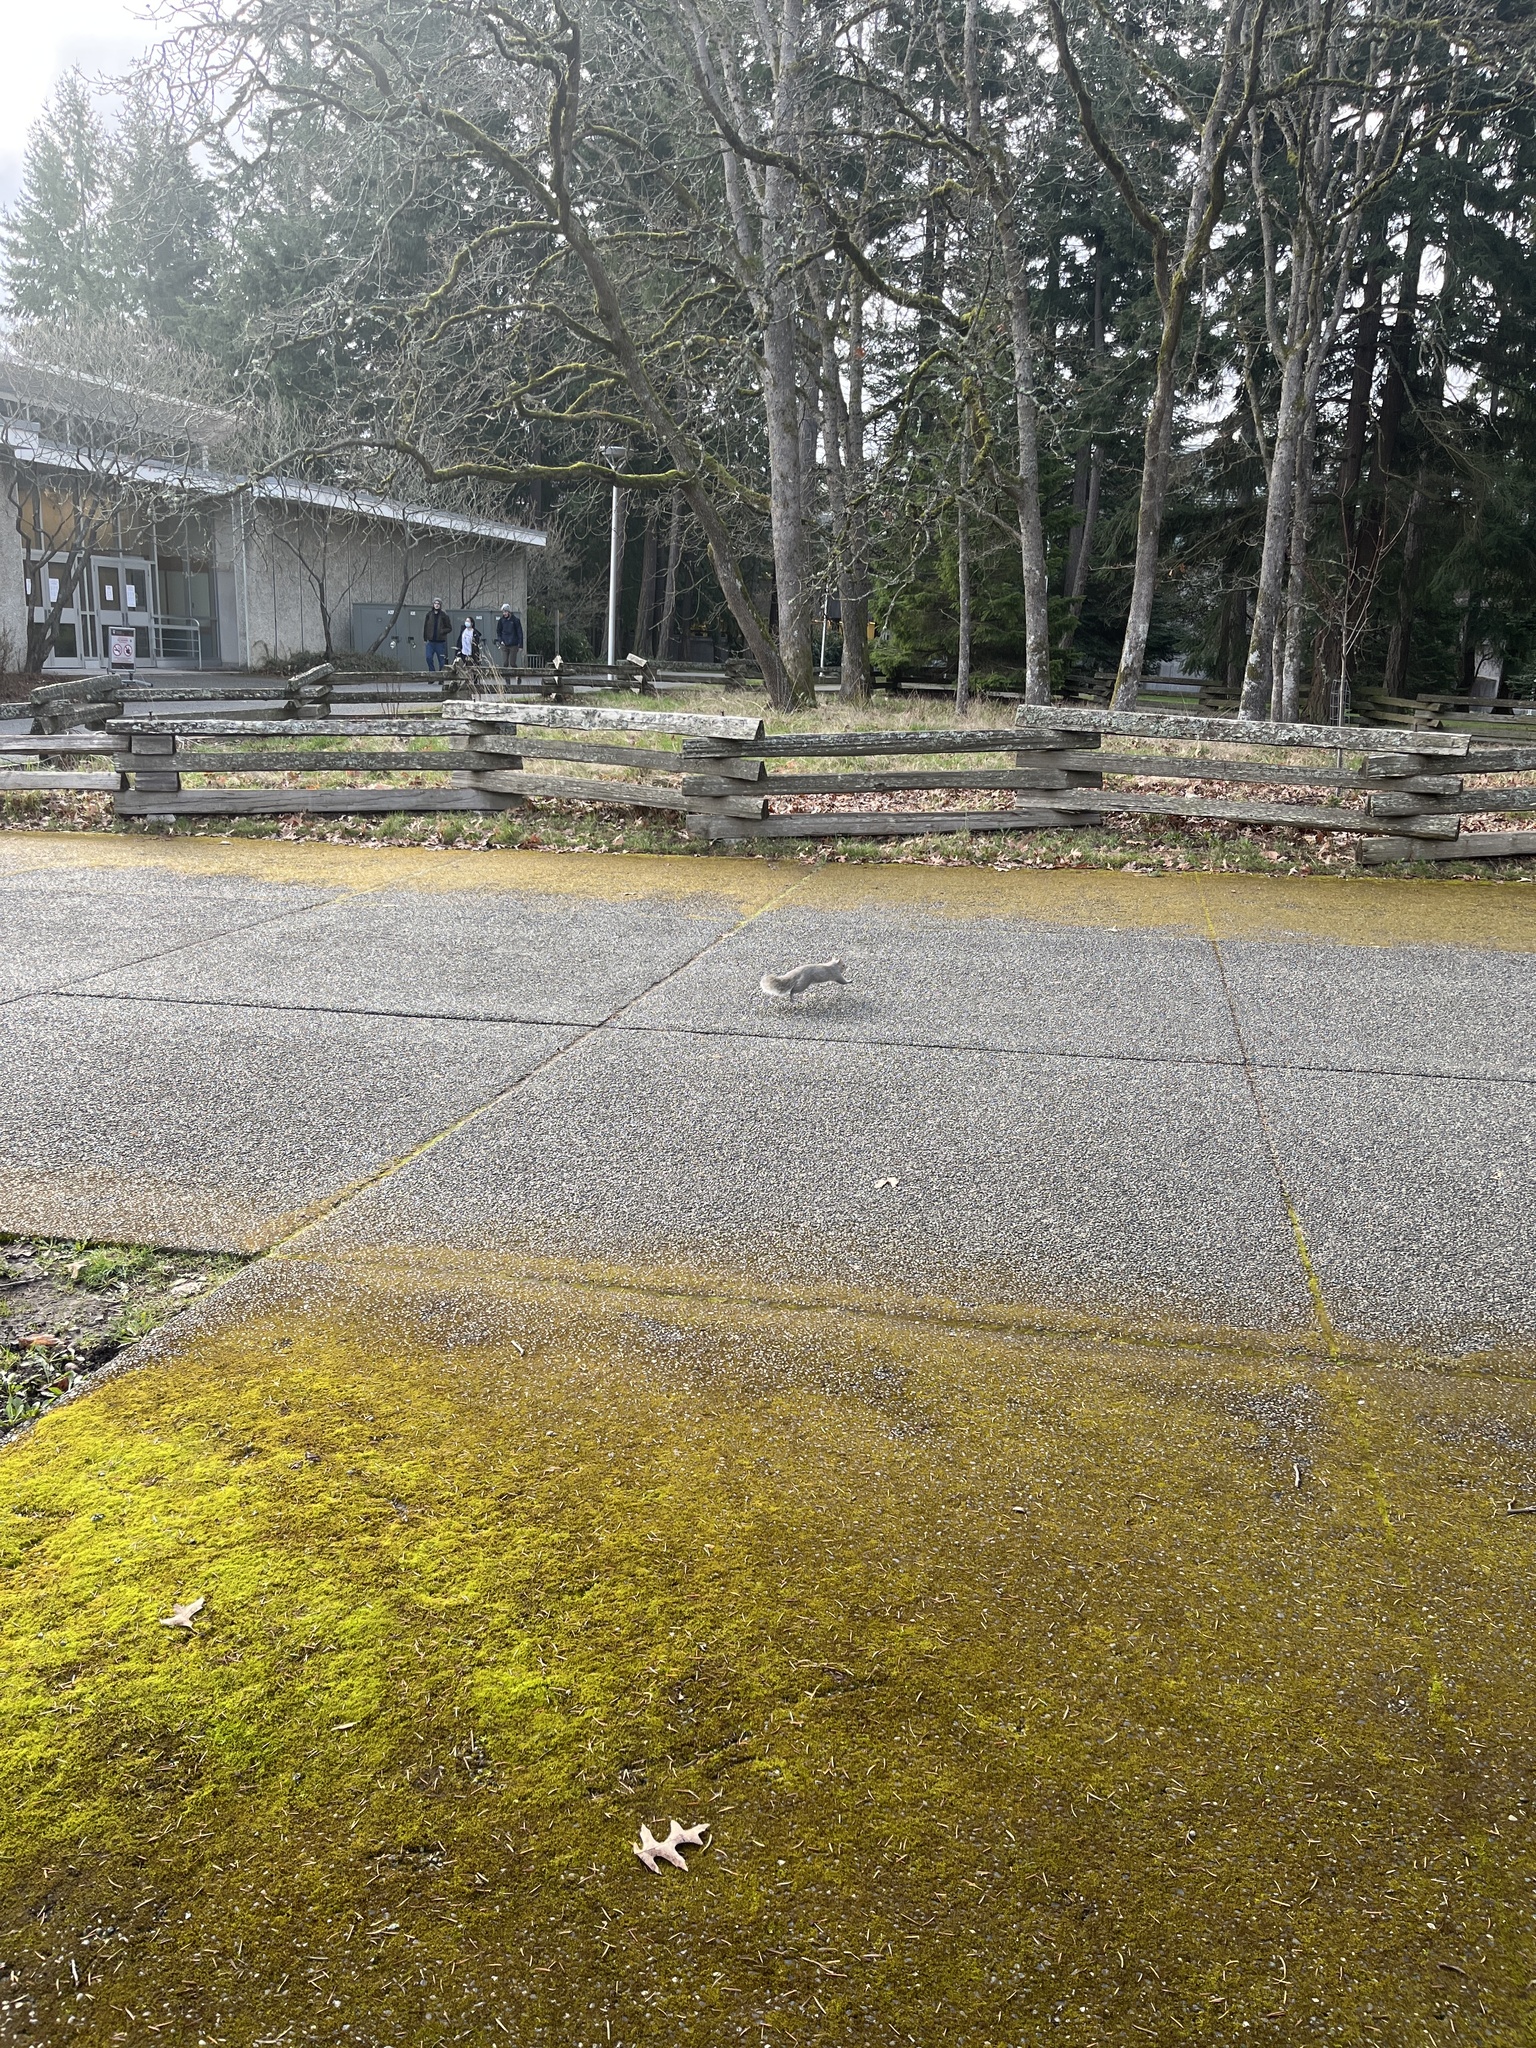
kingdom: Animalia
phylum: Chordata
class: Mammalia
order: Rodentia
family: Sciuridae
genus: Sciurus
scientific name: Sciurus carolinensis
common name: Eastern gray squirrel
